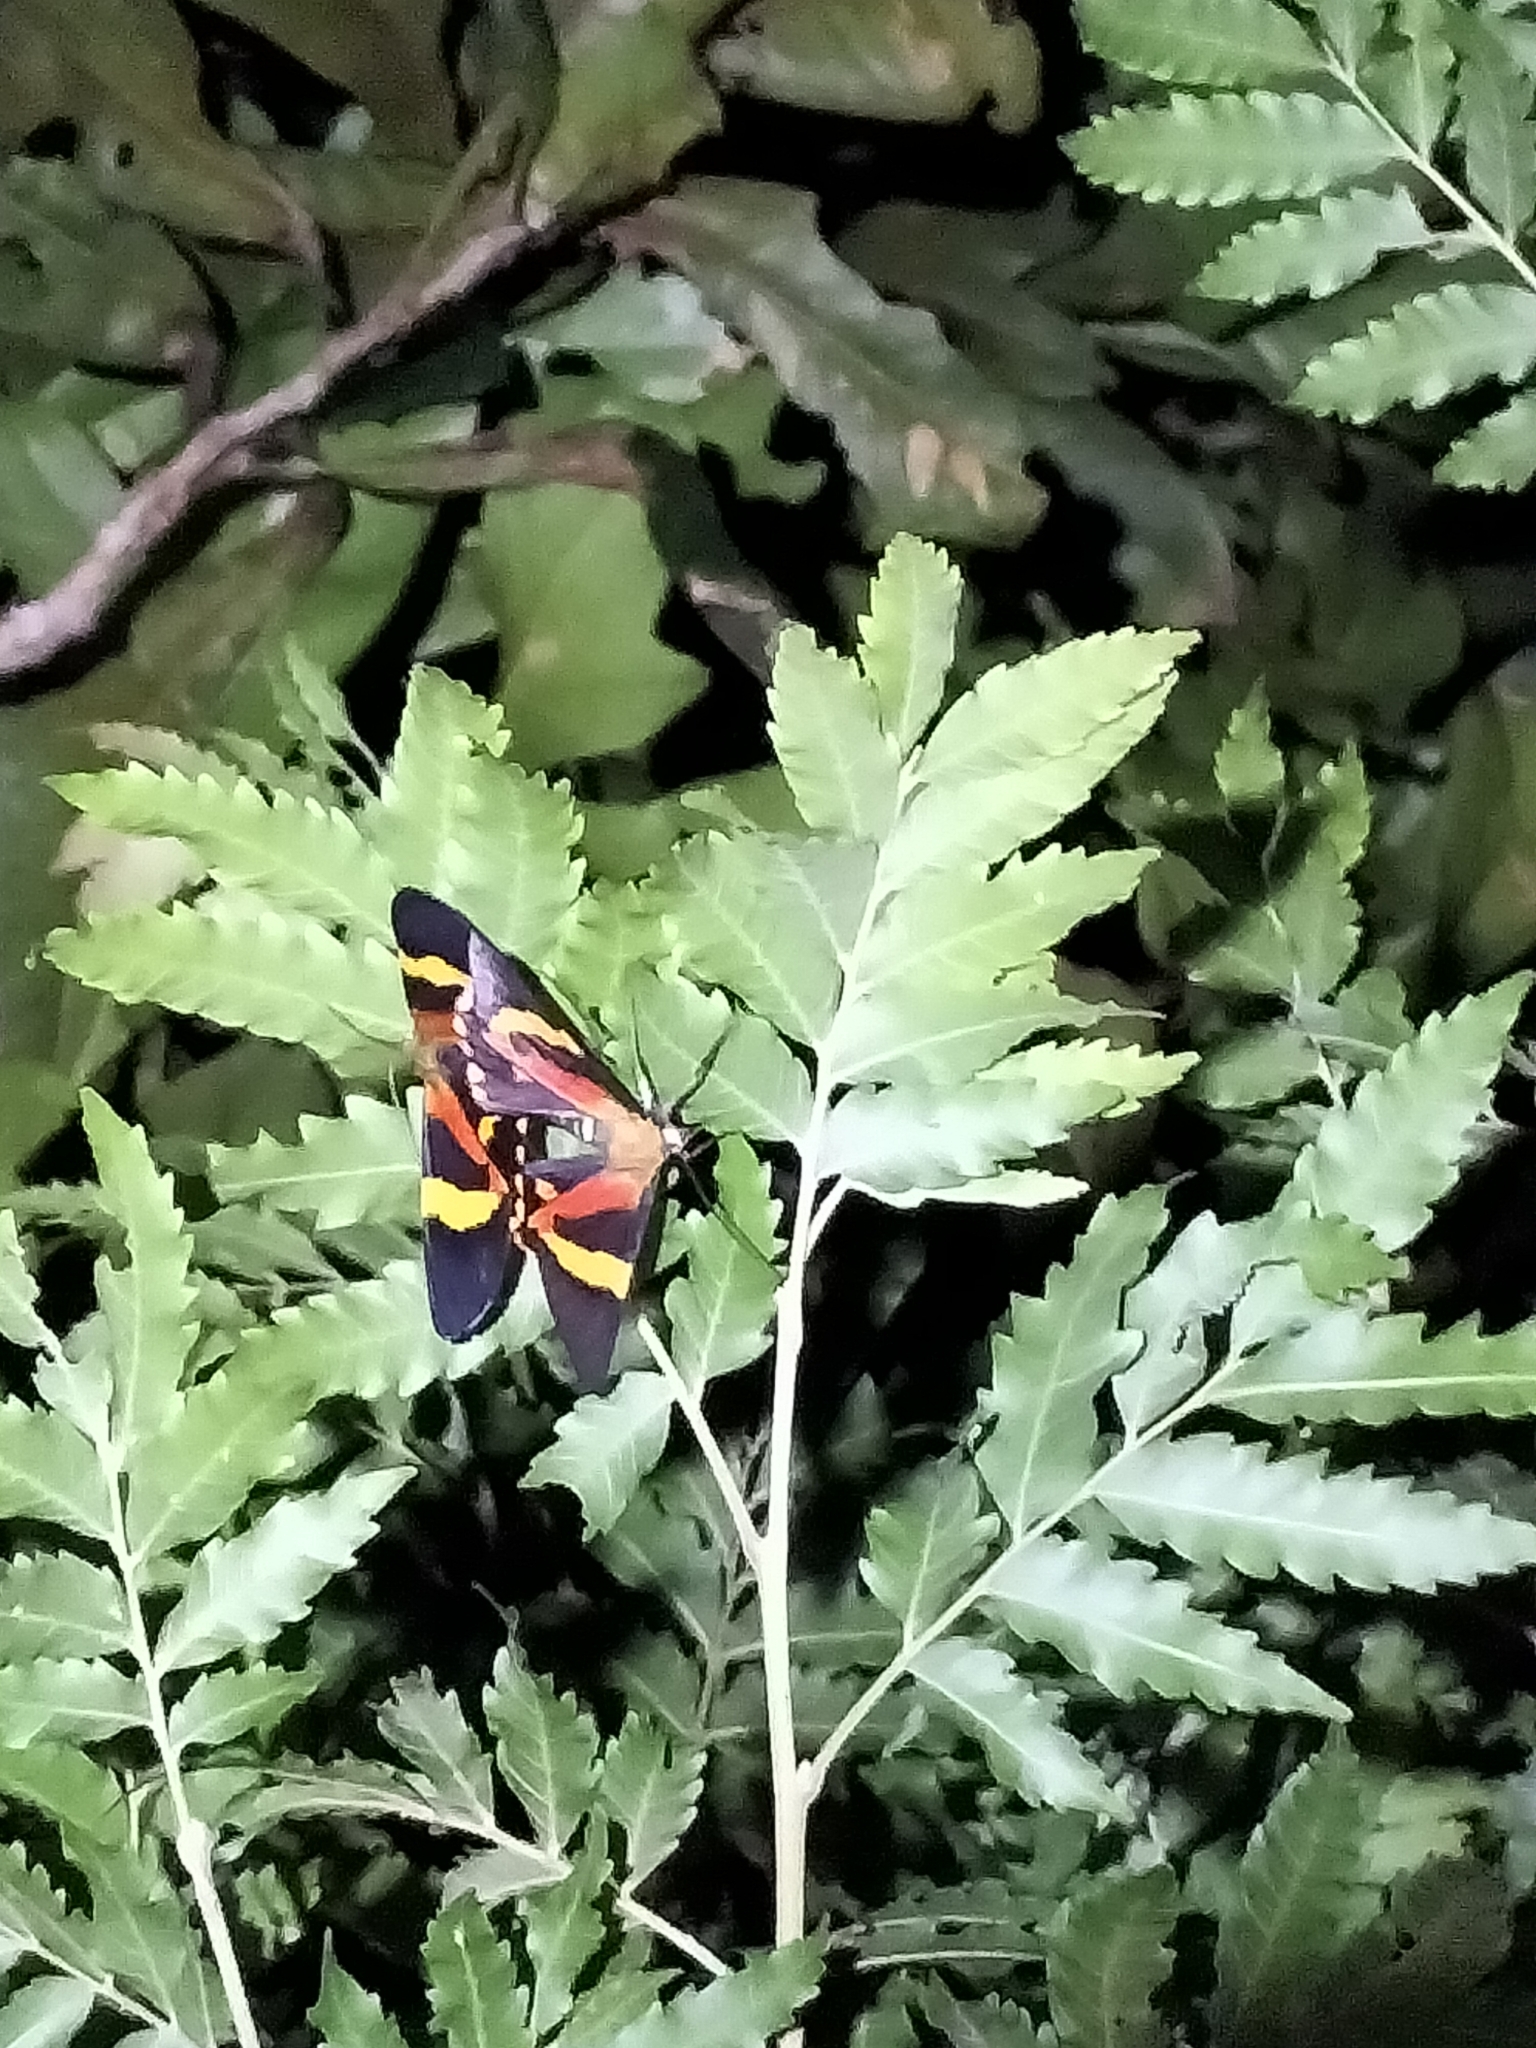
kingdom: Animalia
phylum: Arthropoda
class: Insecta
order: Lepidoptera
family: Geometridae
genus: Milionia
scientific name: Milionia queenslandica
